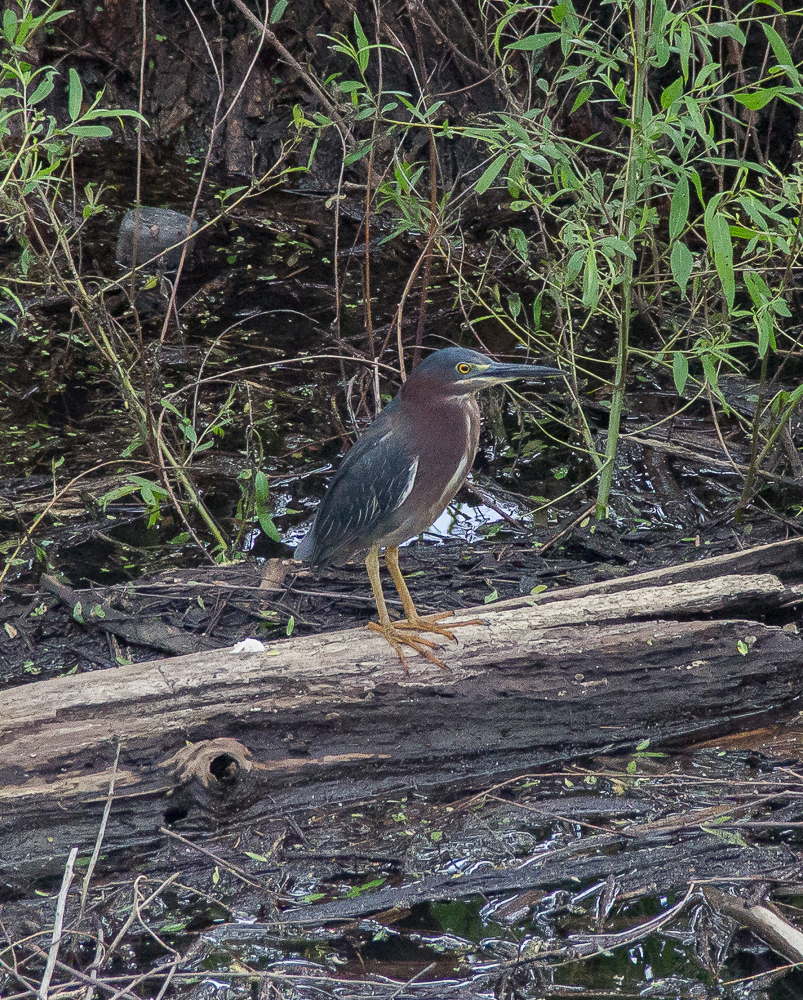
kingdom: Animalia
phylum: Chordata
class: Aves
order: Pelecaniformes
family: Ardeidae
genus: Butorides
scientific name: Butorides virescens
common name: Green heron
